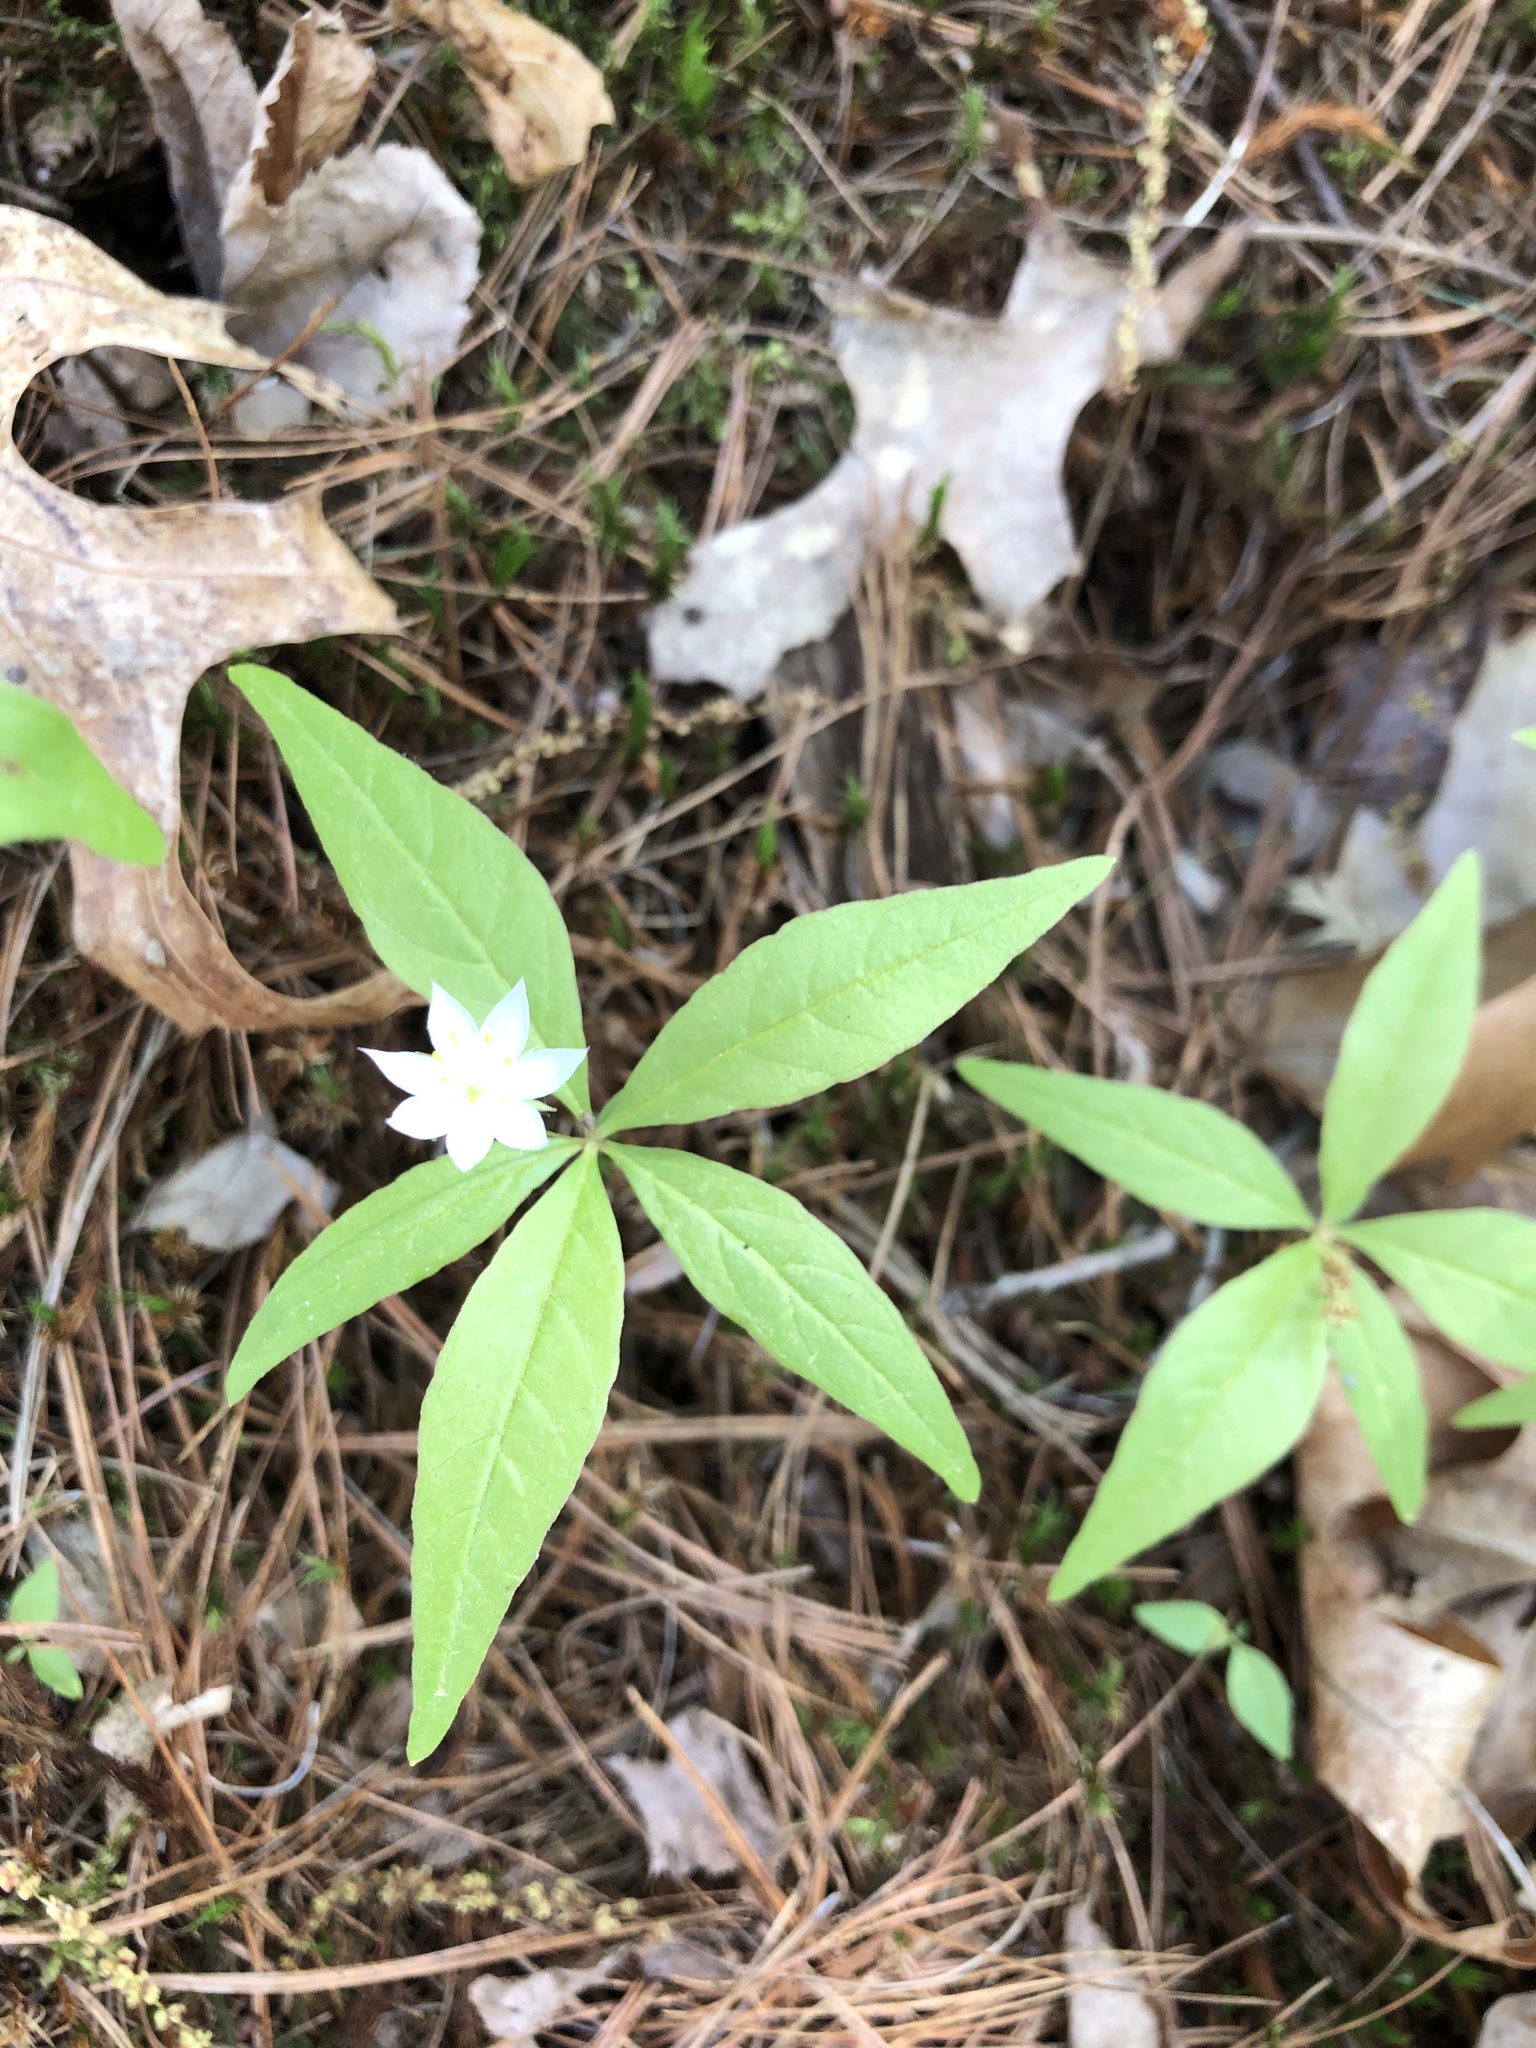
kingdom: Plantae
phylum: Tracheophyta
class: Magnoliopsida
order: Ericales
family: Primulaceae
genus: Lysimachia
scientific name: Lysimachia borealis
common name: American starflower
